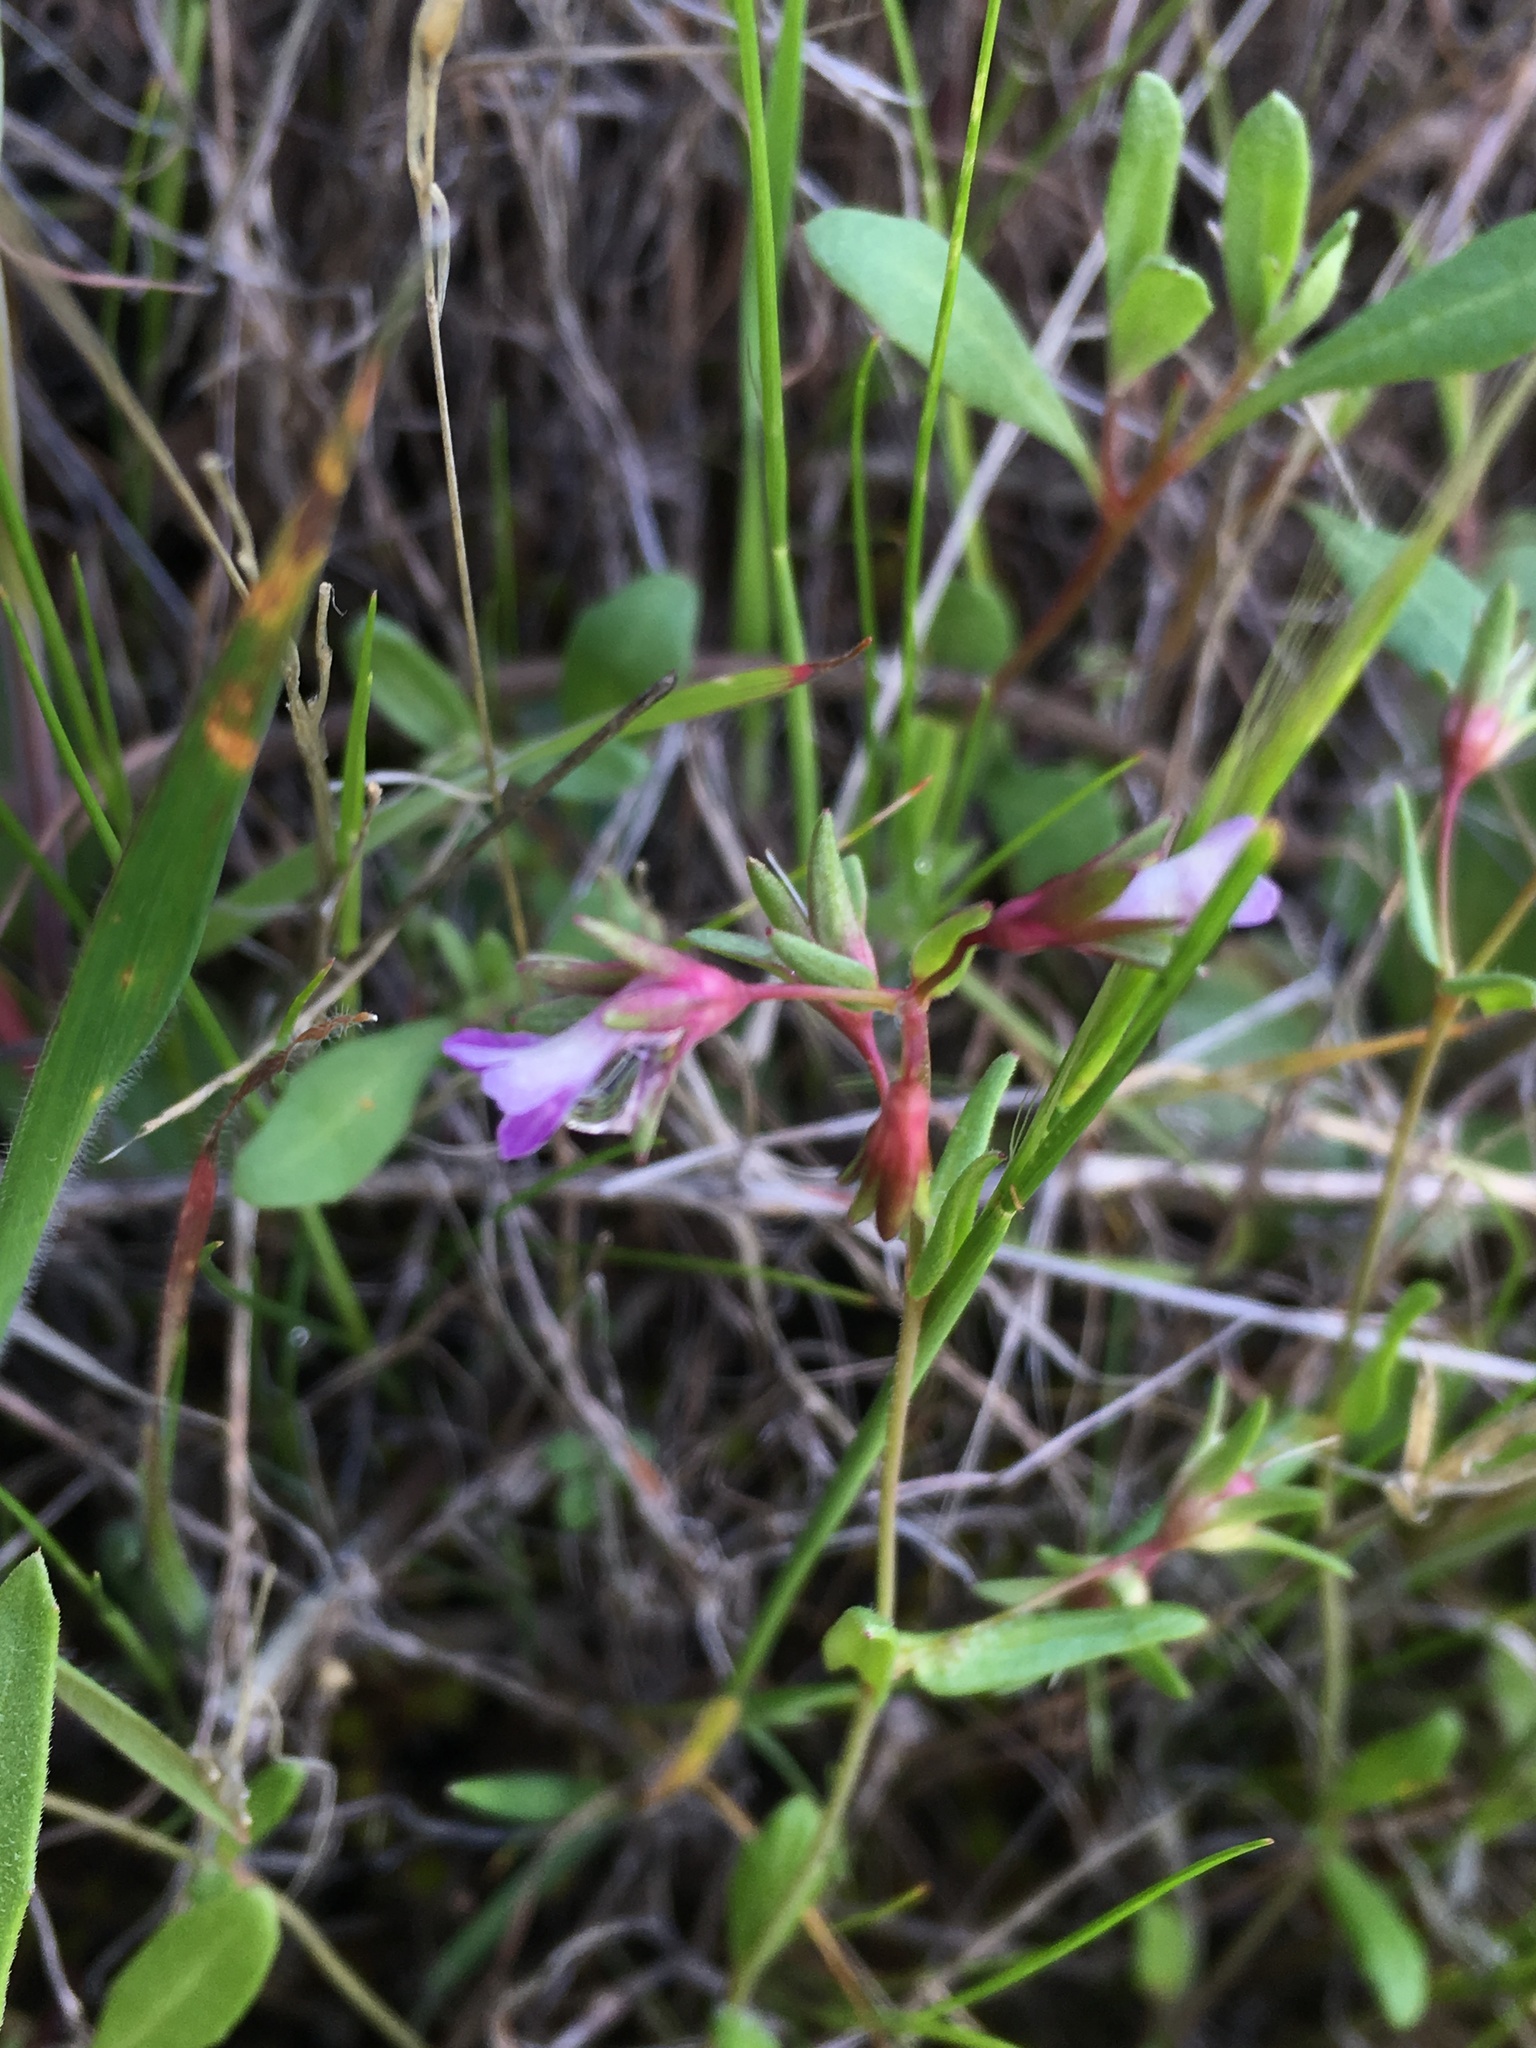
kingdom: Plantae
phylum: Tracheophyta
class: Magnoliopsida
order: Lamiales
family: Plantaginaceae
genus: Collinsia
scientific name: Collinsia sparsiflora
